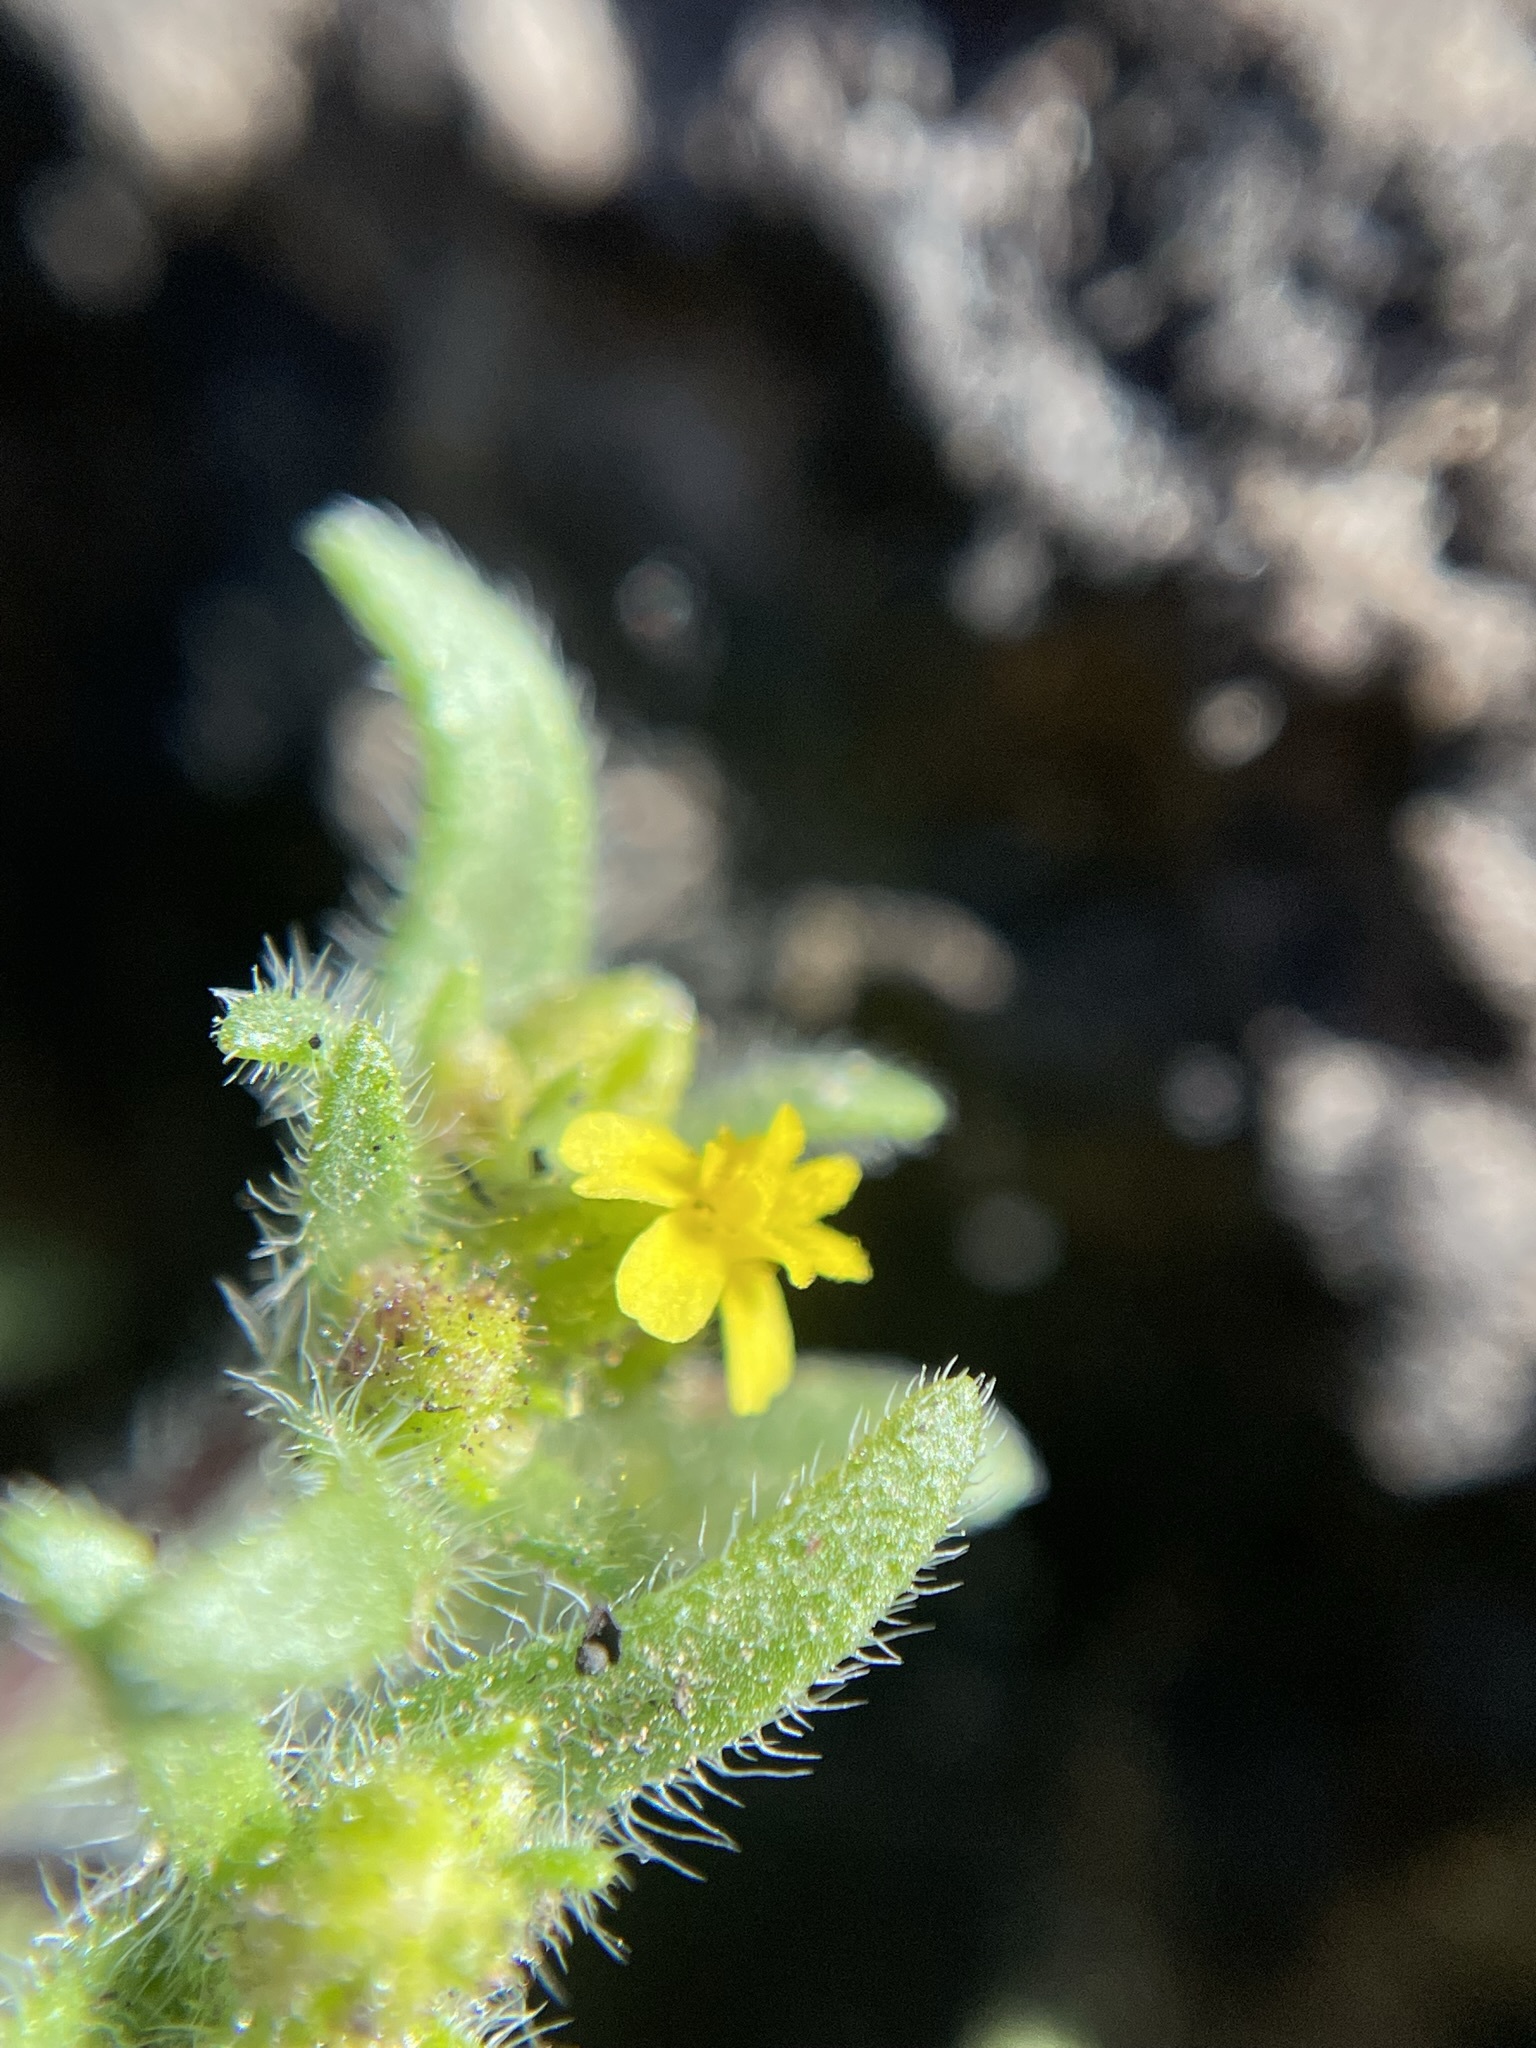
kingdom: Plantae
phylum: Tracheophyta
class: Magnoliopsida
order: Asterales
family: Asteraceae
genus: Hemizonella
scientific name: Hemizonella minima
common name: Opposite-leaved tarweed
